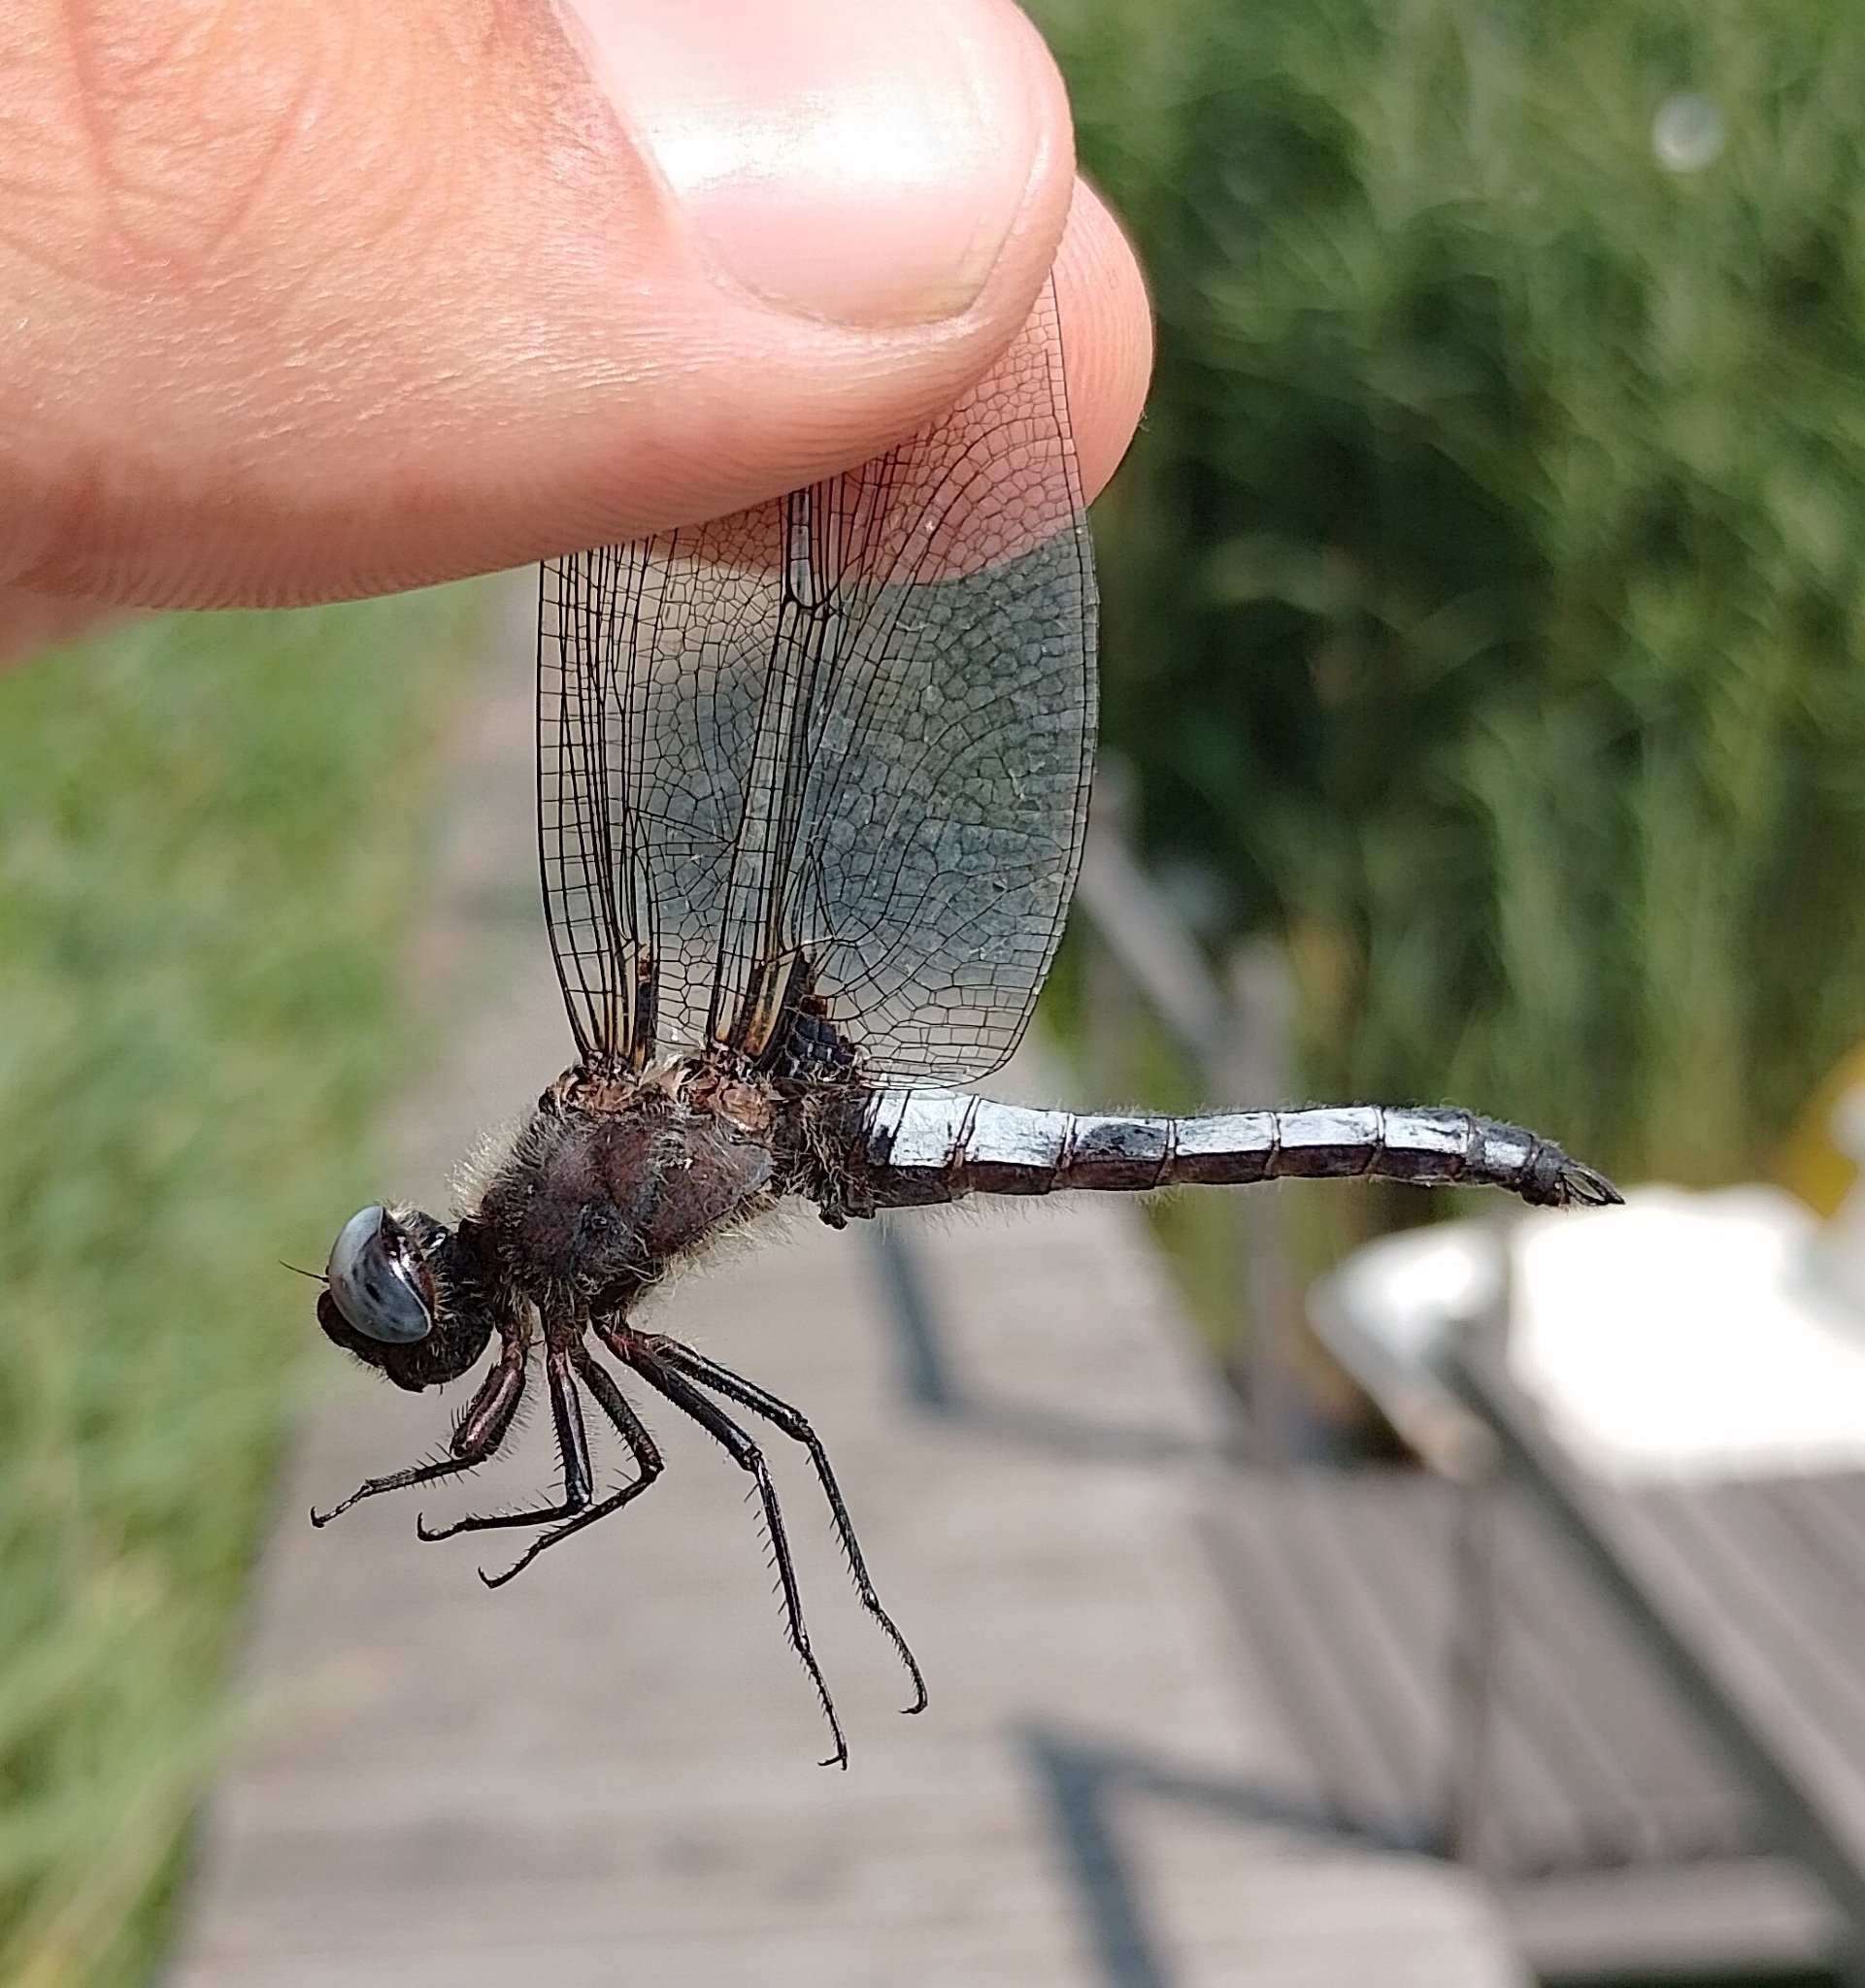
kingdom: Animalia
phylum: Arthropoda
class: Insecta
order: Odonata
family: Libellulidae
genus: Libellula
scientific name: Libellula fulva
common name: Blue chaser
